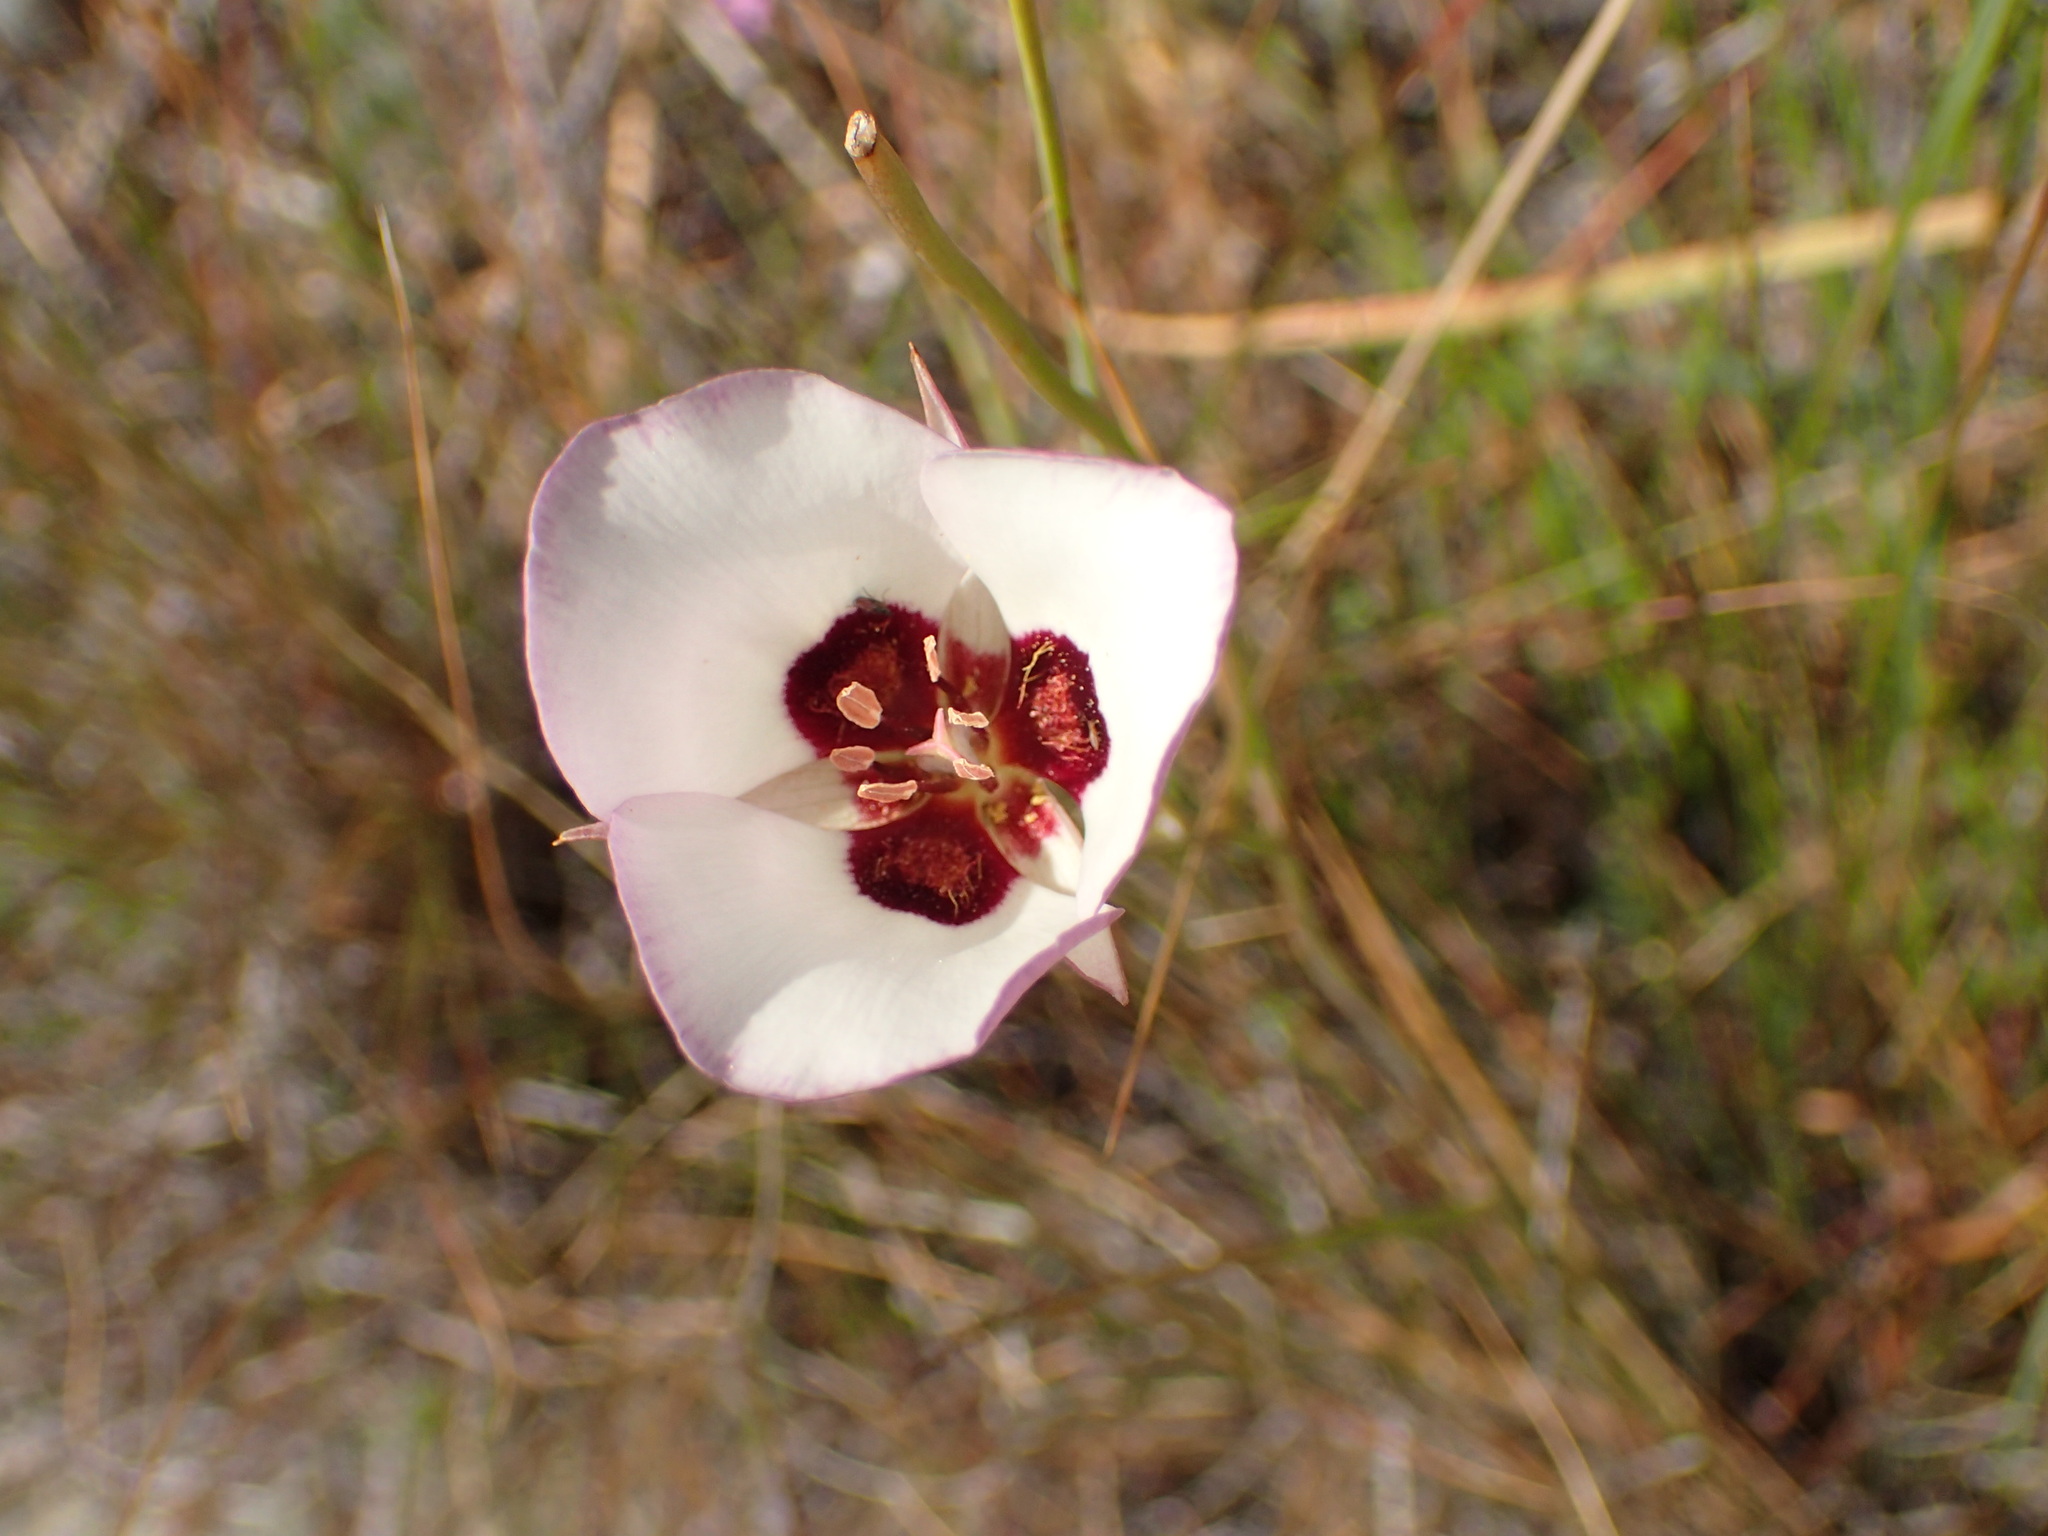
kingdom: Plantae
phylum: Tracheophyta
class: Liliopsida
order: Liliales
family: Liliaceae
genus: Calochortus
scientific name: Calochortus catalinae
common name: Catalina mariposa-lily
